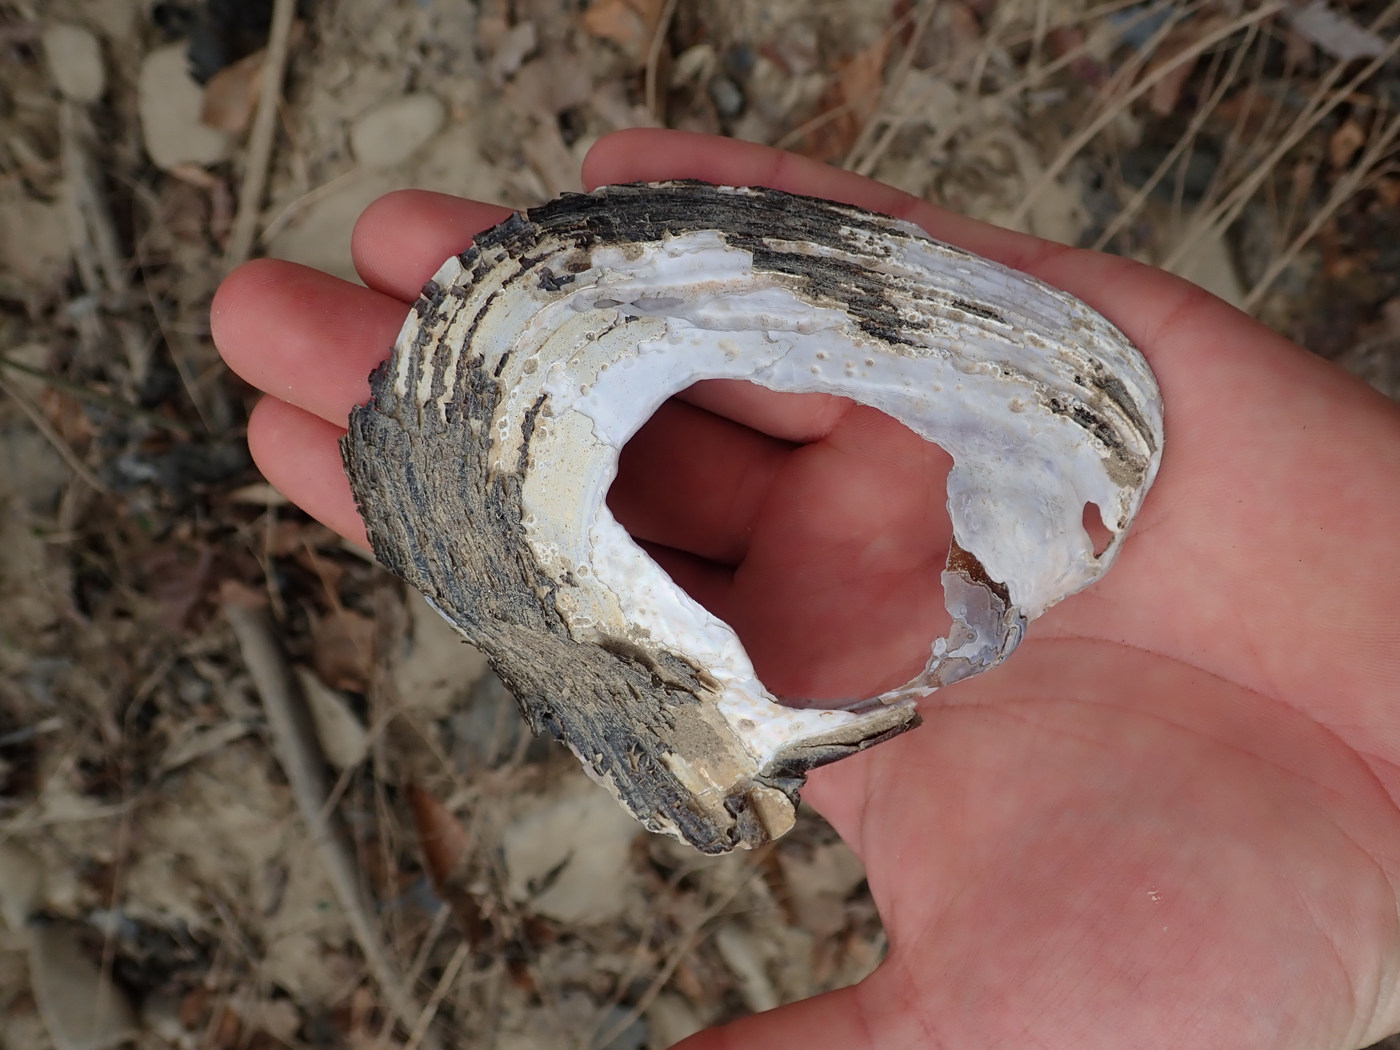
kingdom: Animalia
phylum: Mollusca
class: Bivalvia
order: Unionida
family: Unionidae
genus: Potamilus
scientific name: Potamilus alatus
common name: Pink heelsplitter
